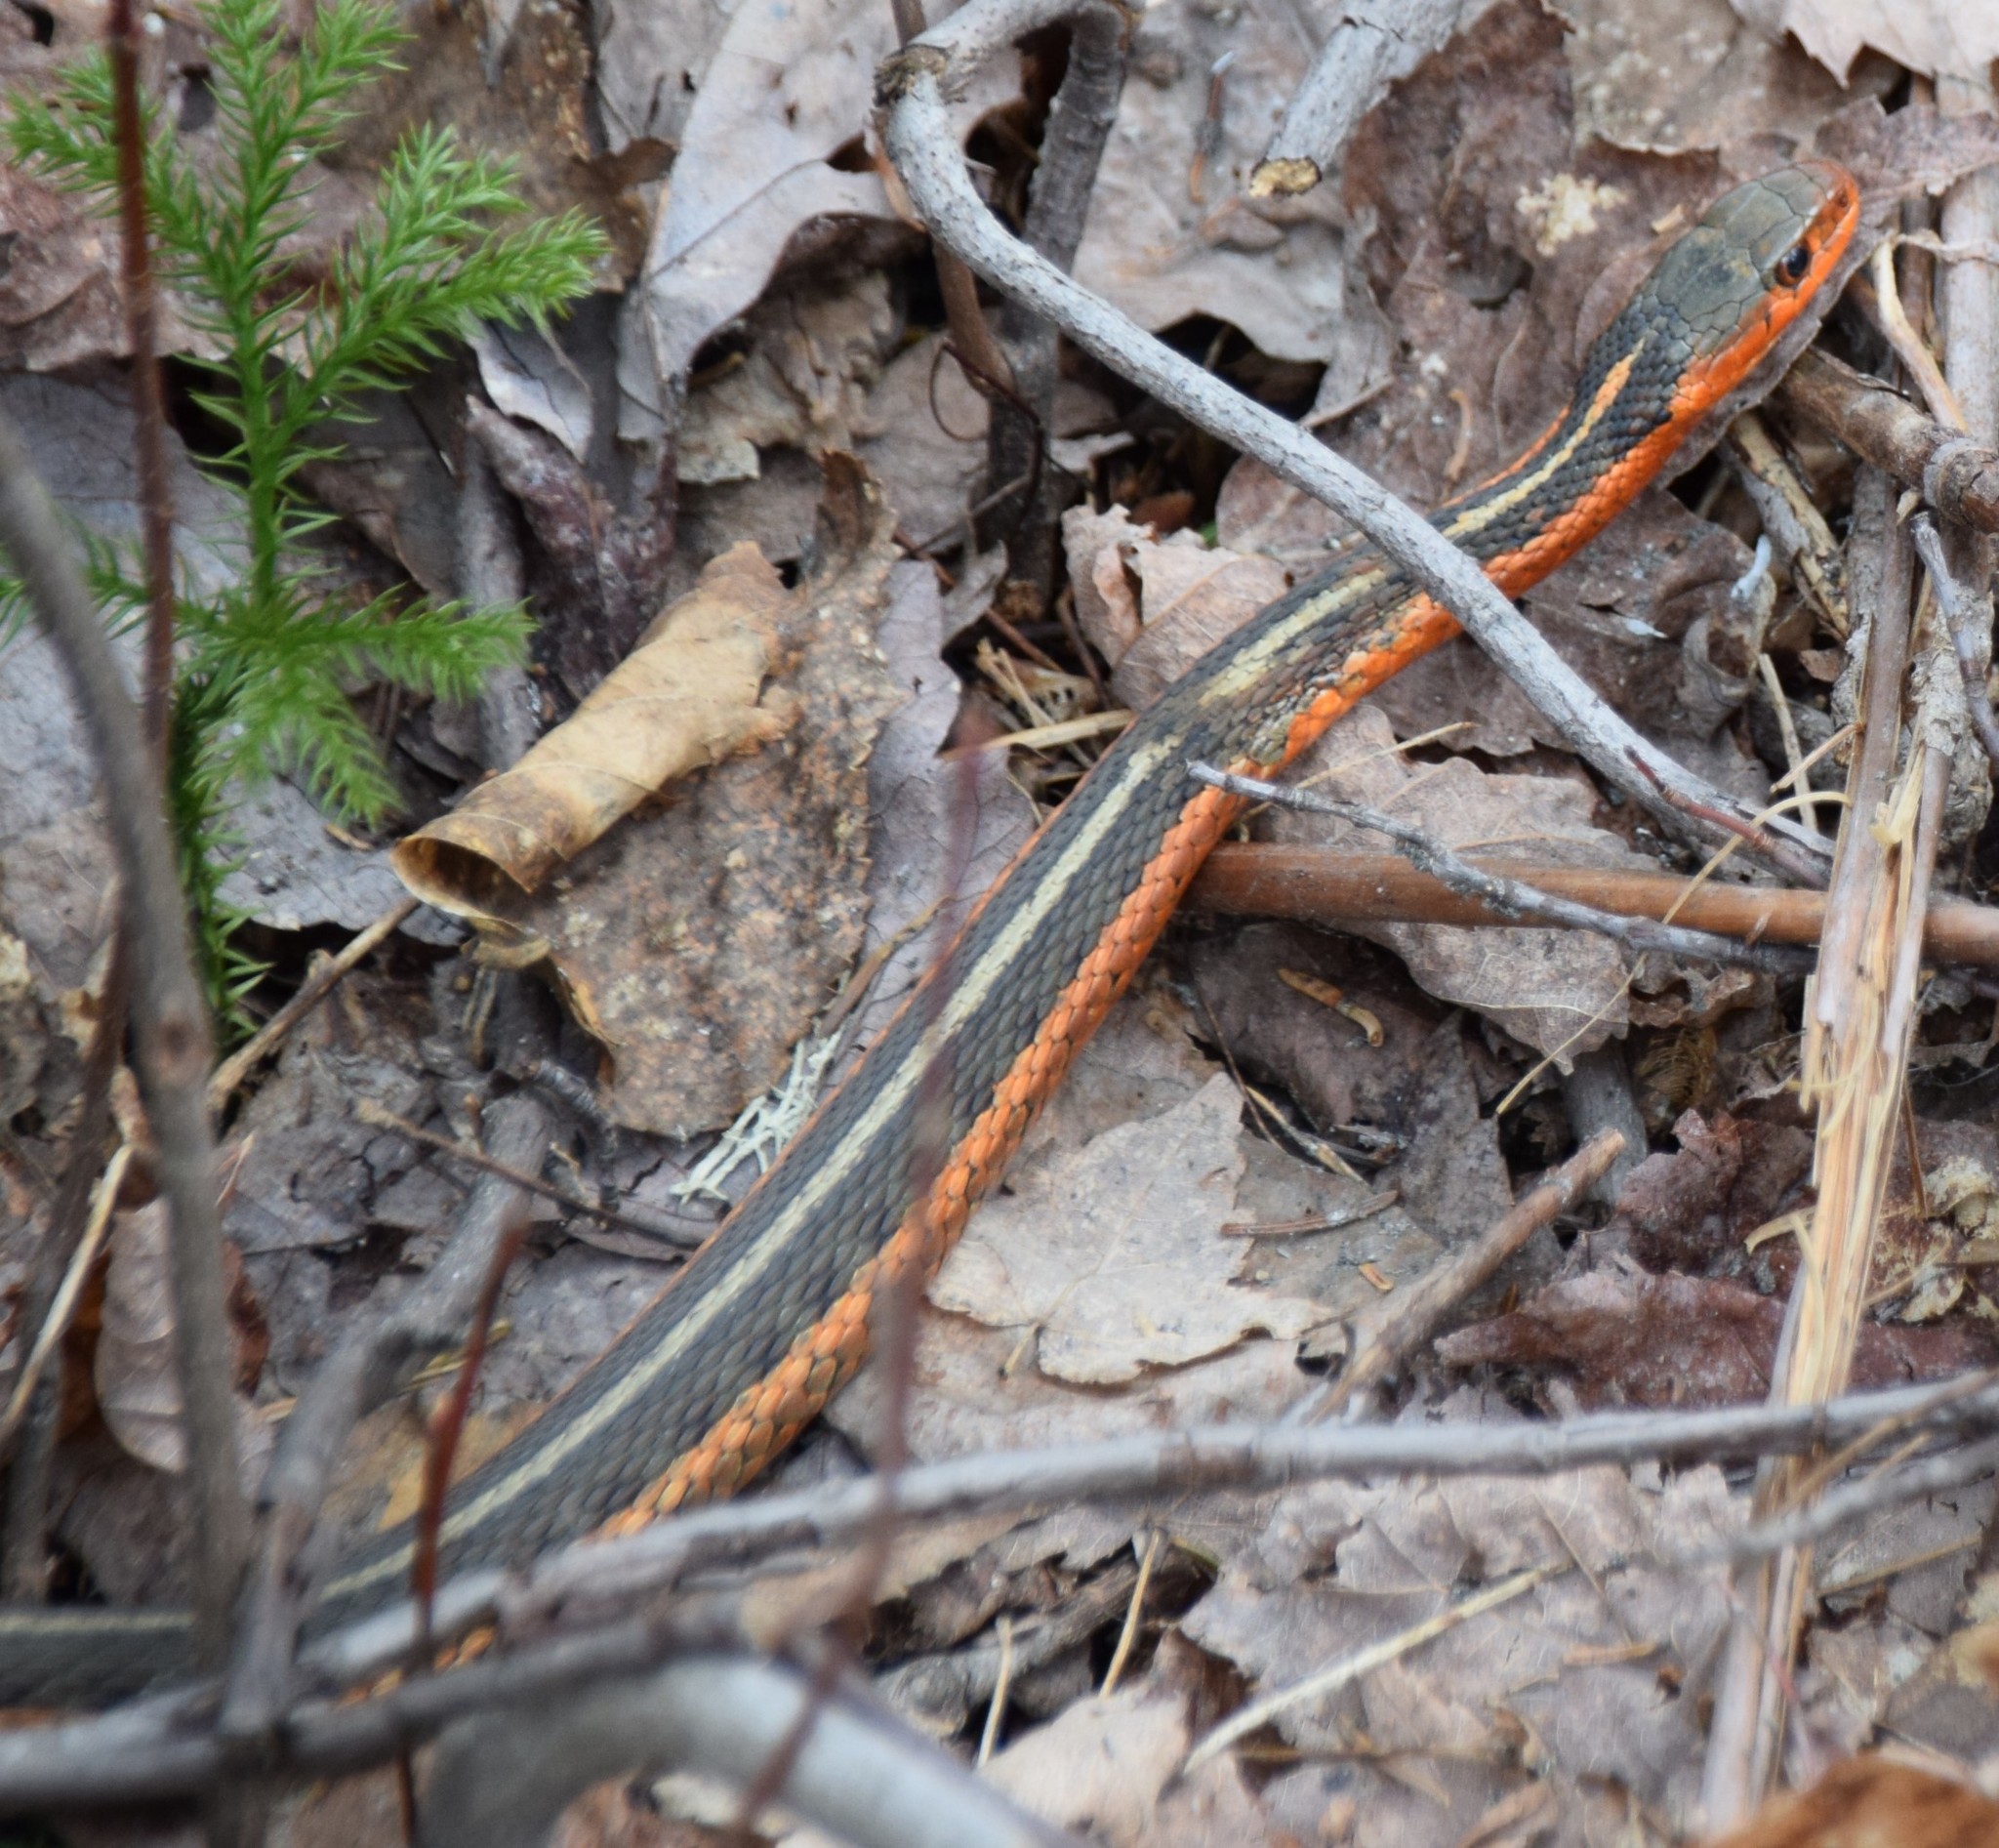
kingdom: Animalia
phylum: Chordata
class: Squamata
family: Colubridae
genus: Thamnophis
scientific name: Thamnophis sirtalis
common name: Common garter snake
